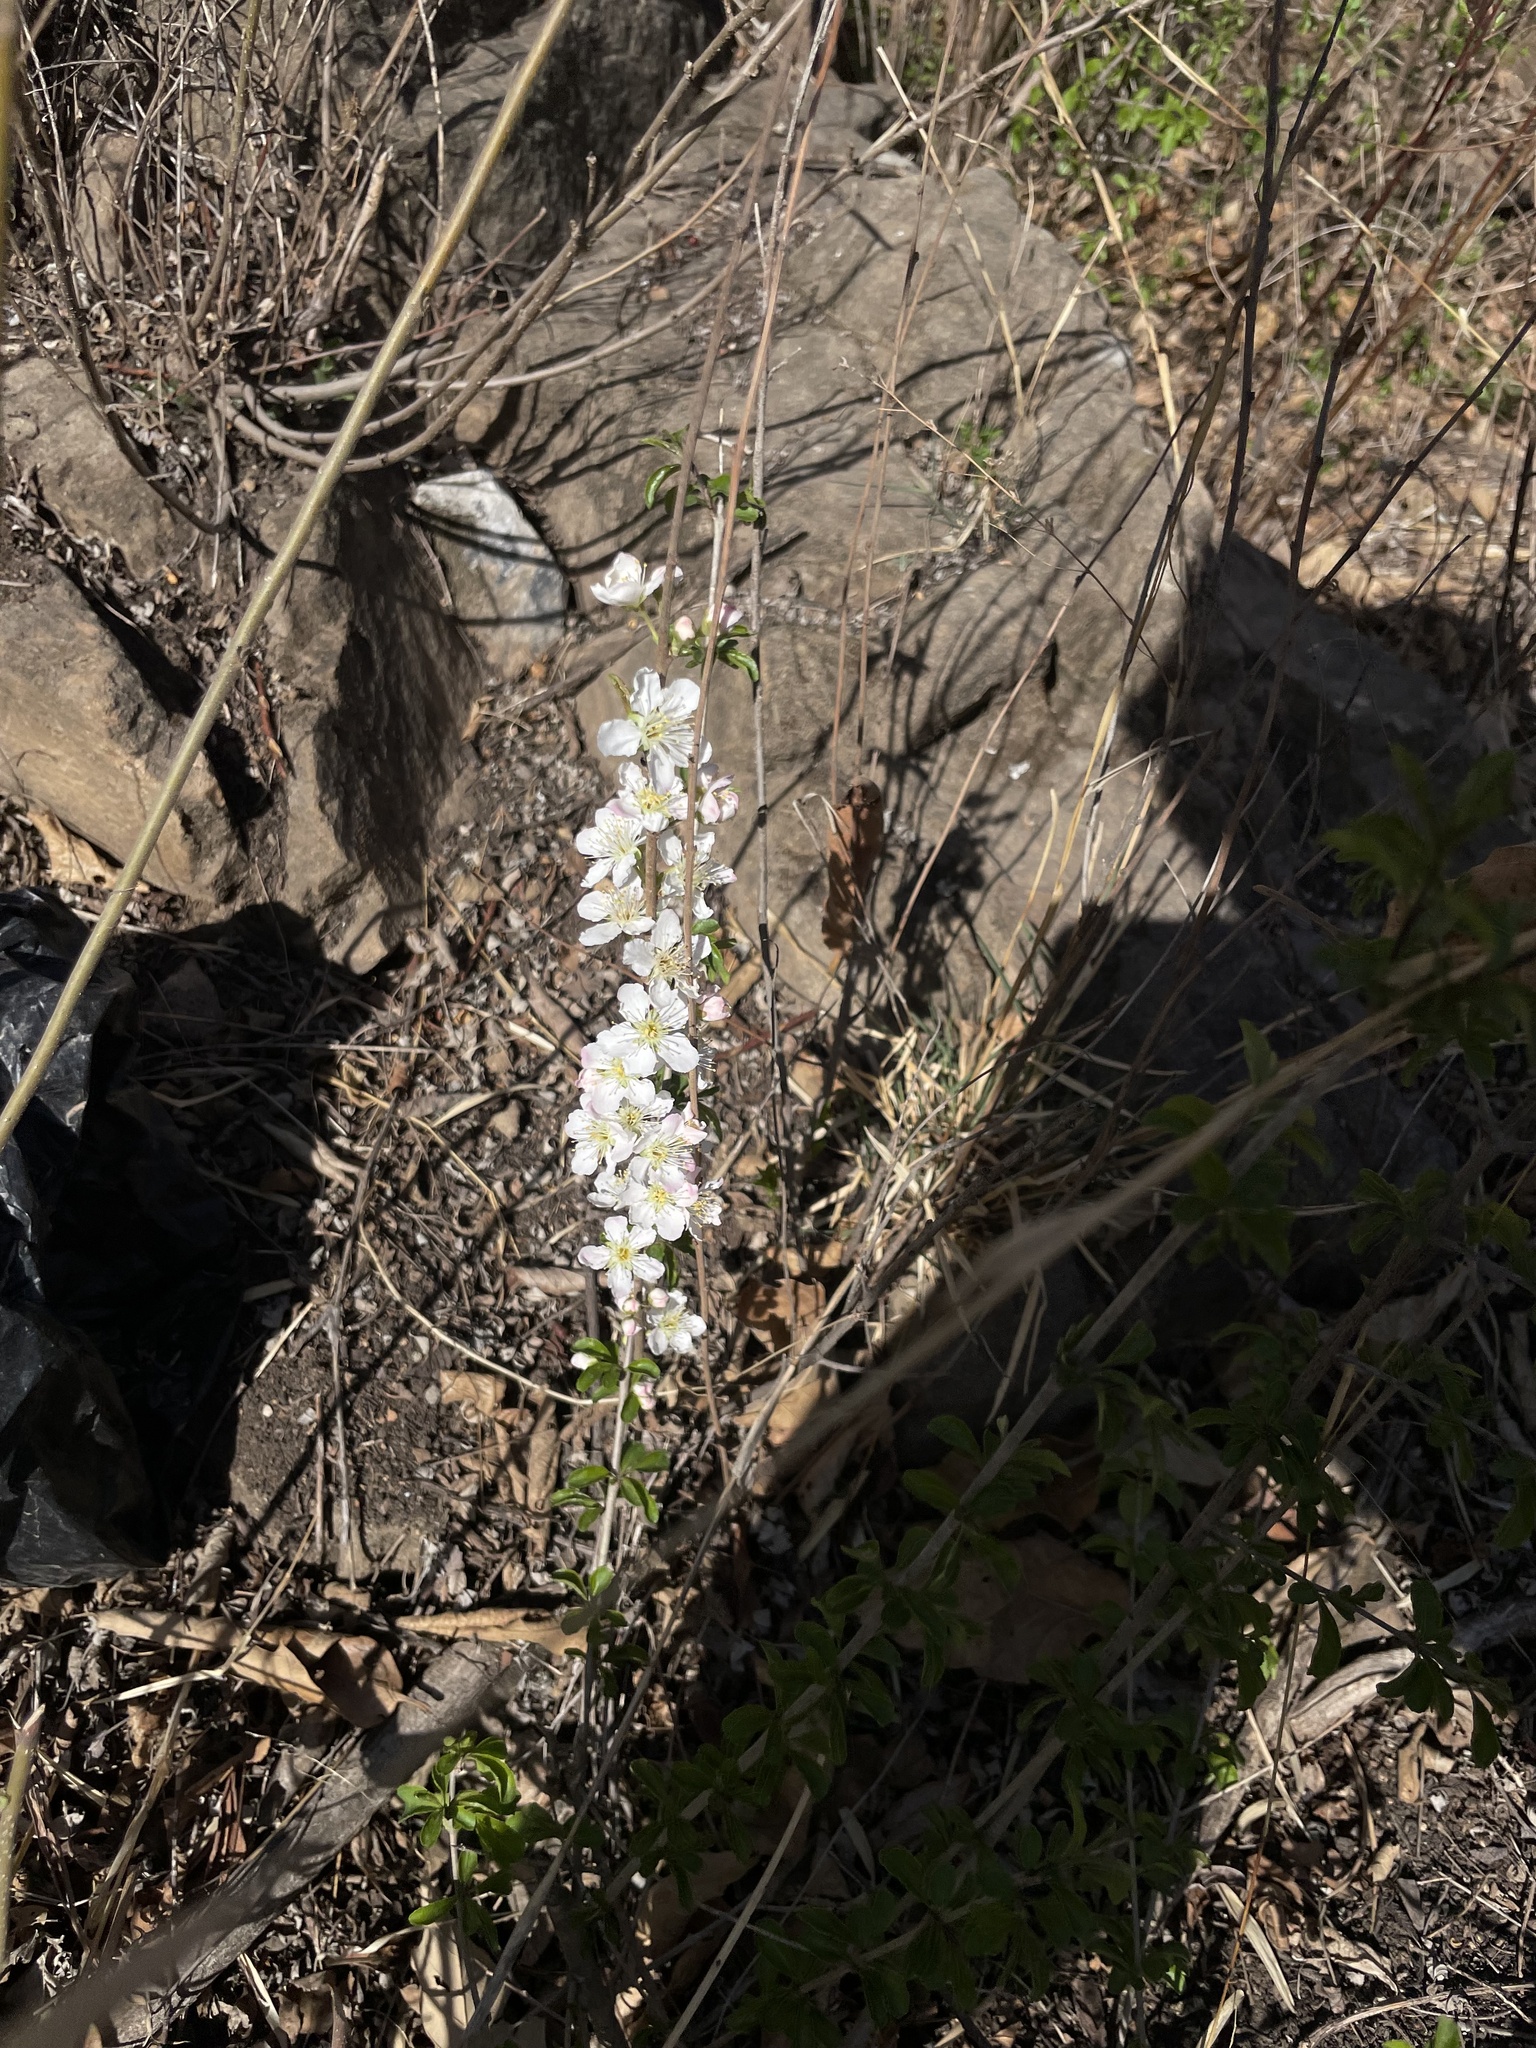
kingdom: Plantae
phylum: Tracheophyta
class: Magnoliopsida
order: Rosales
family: Rosaceae
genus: Prunus
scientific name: Prunus humilis
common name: Humble bush cherry
